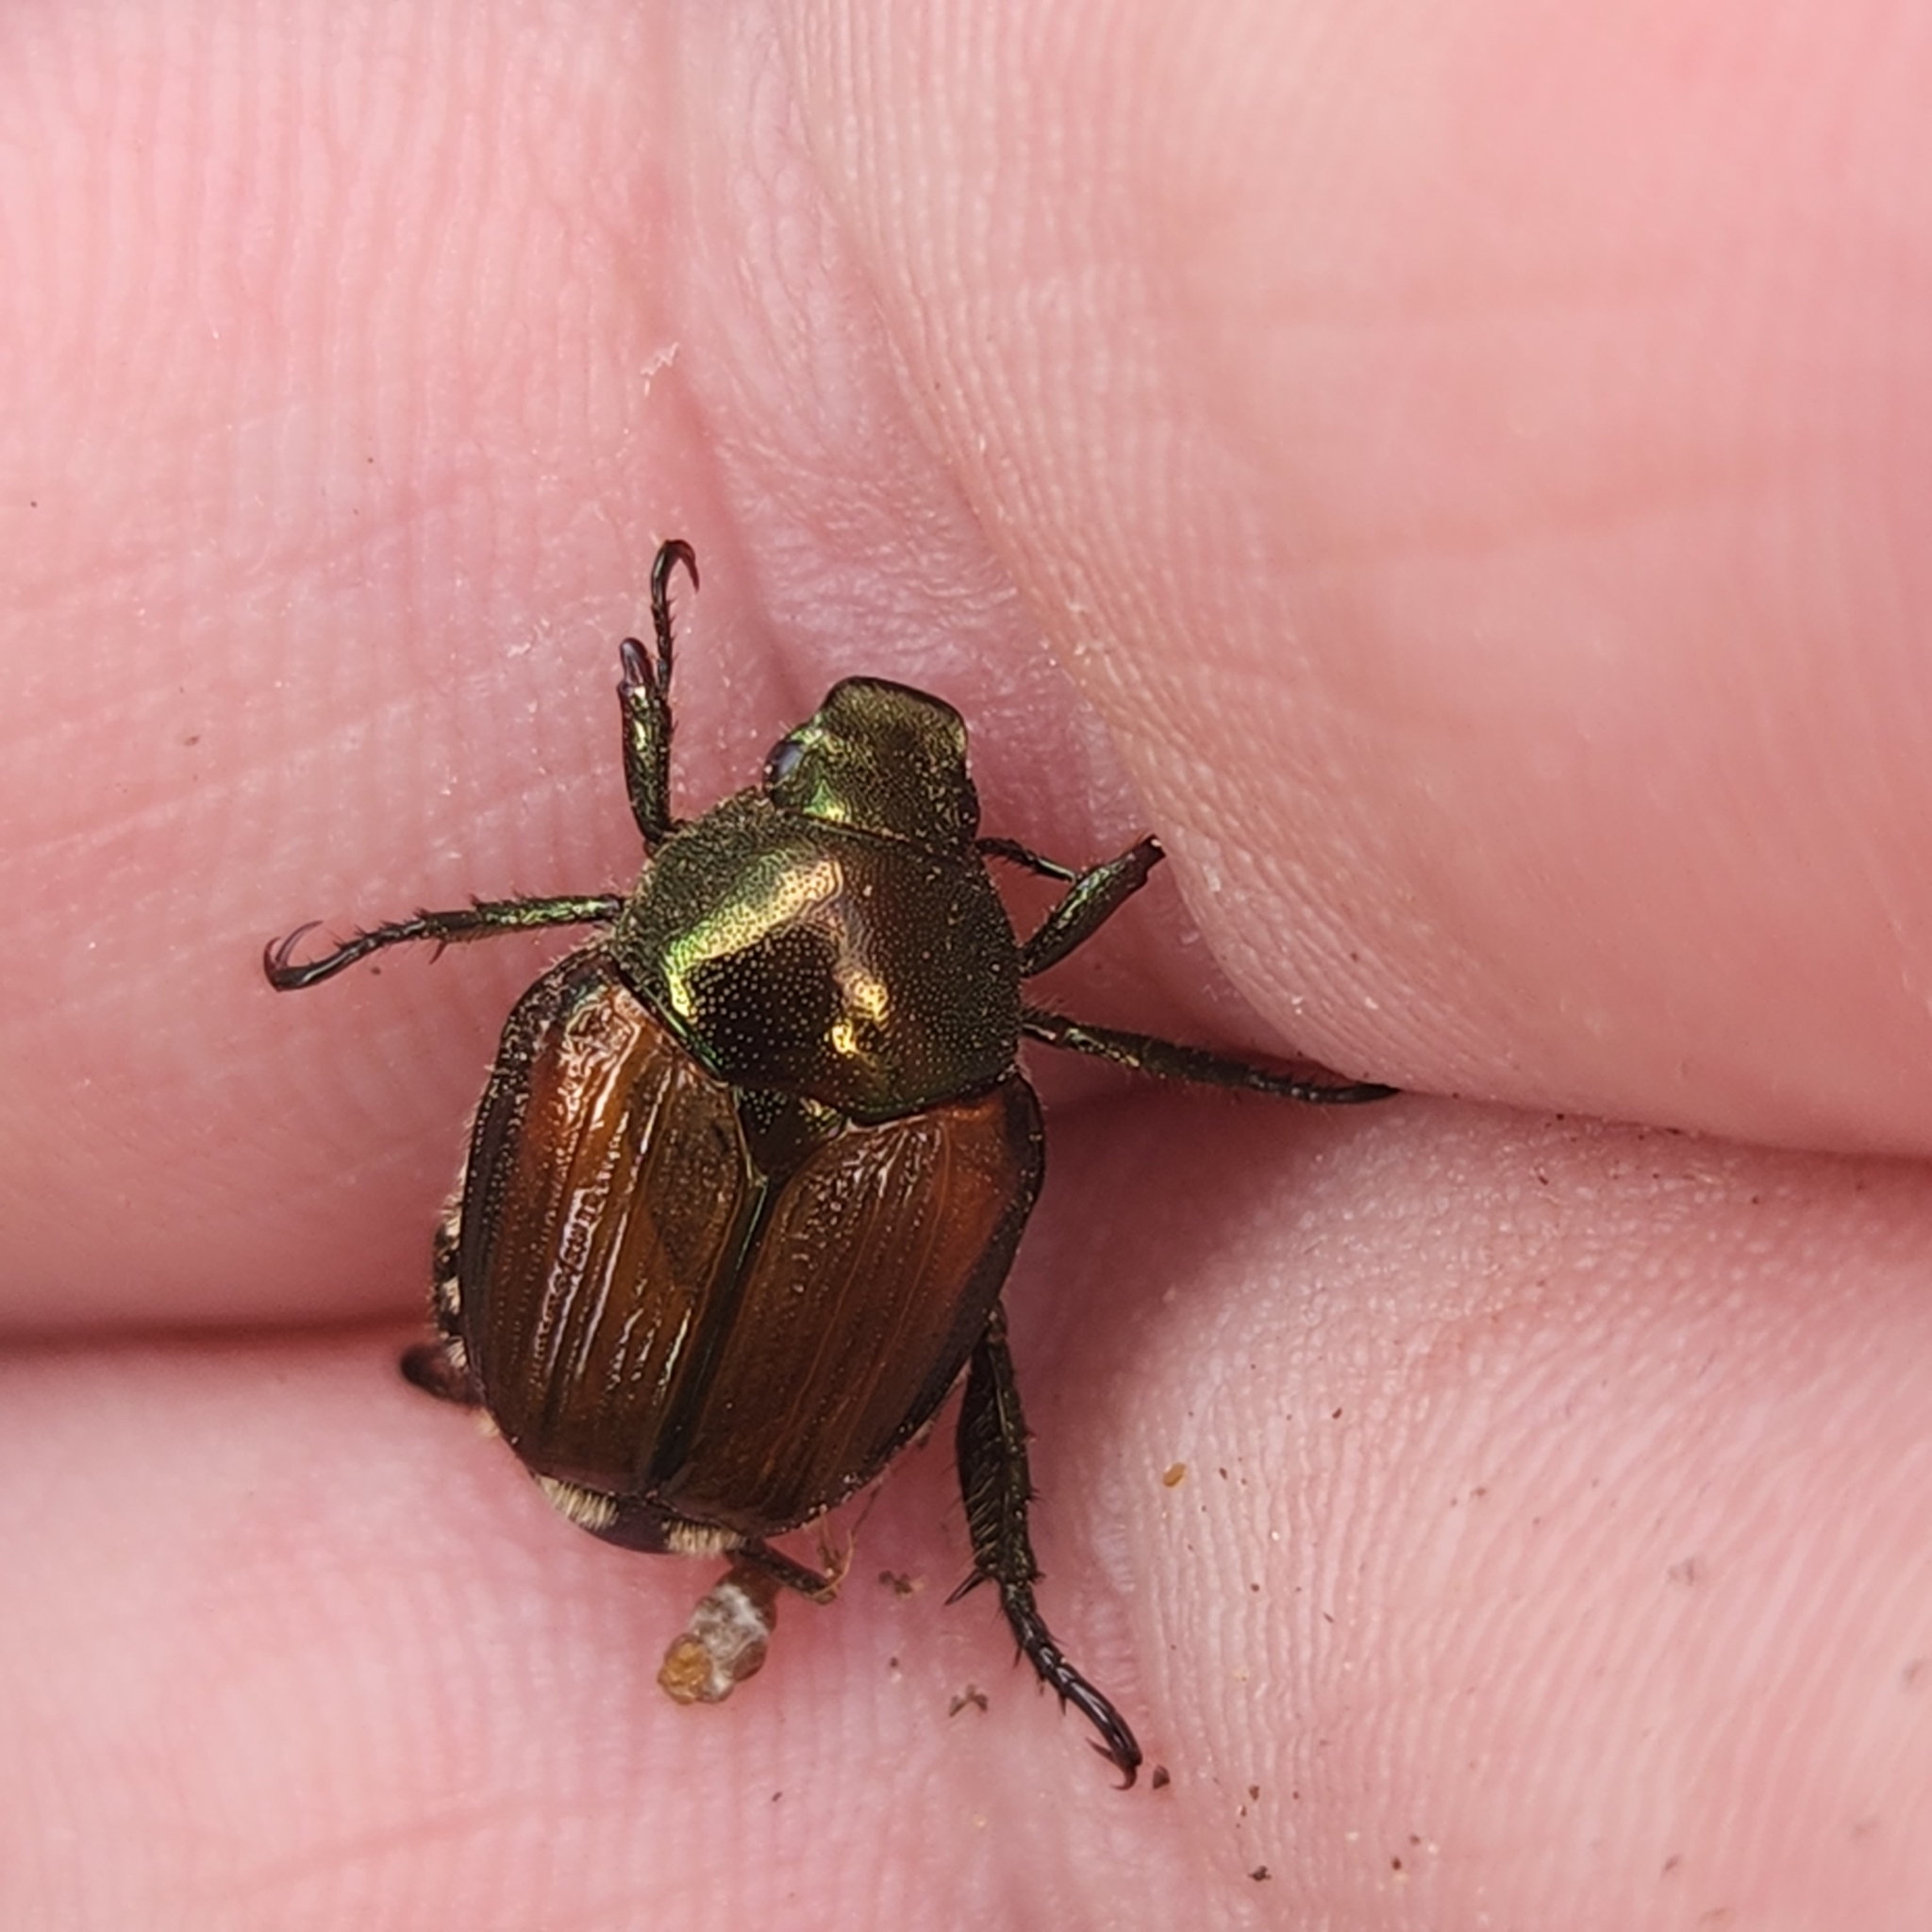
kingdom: Animalia
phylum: Arthropoda
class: Insecta
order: Coleoptera
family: Scarabaeidae
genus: Popillia
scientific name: Popillia japonica
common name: Japanese beetle
